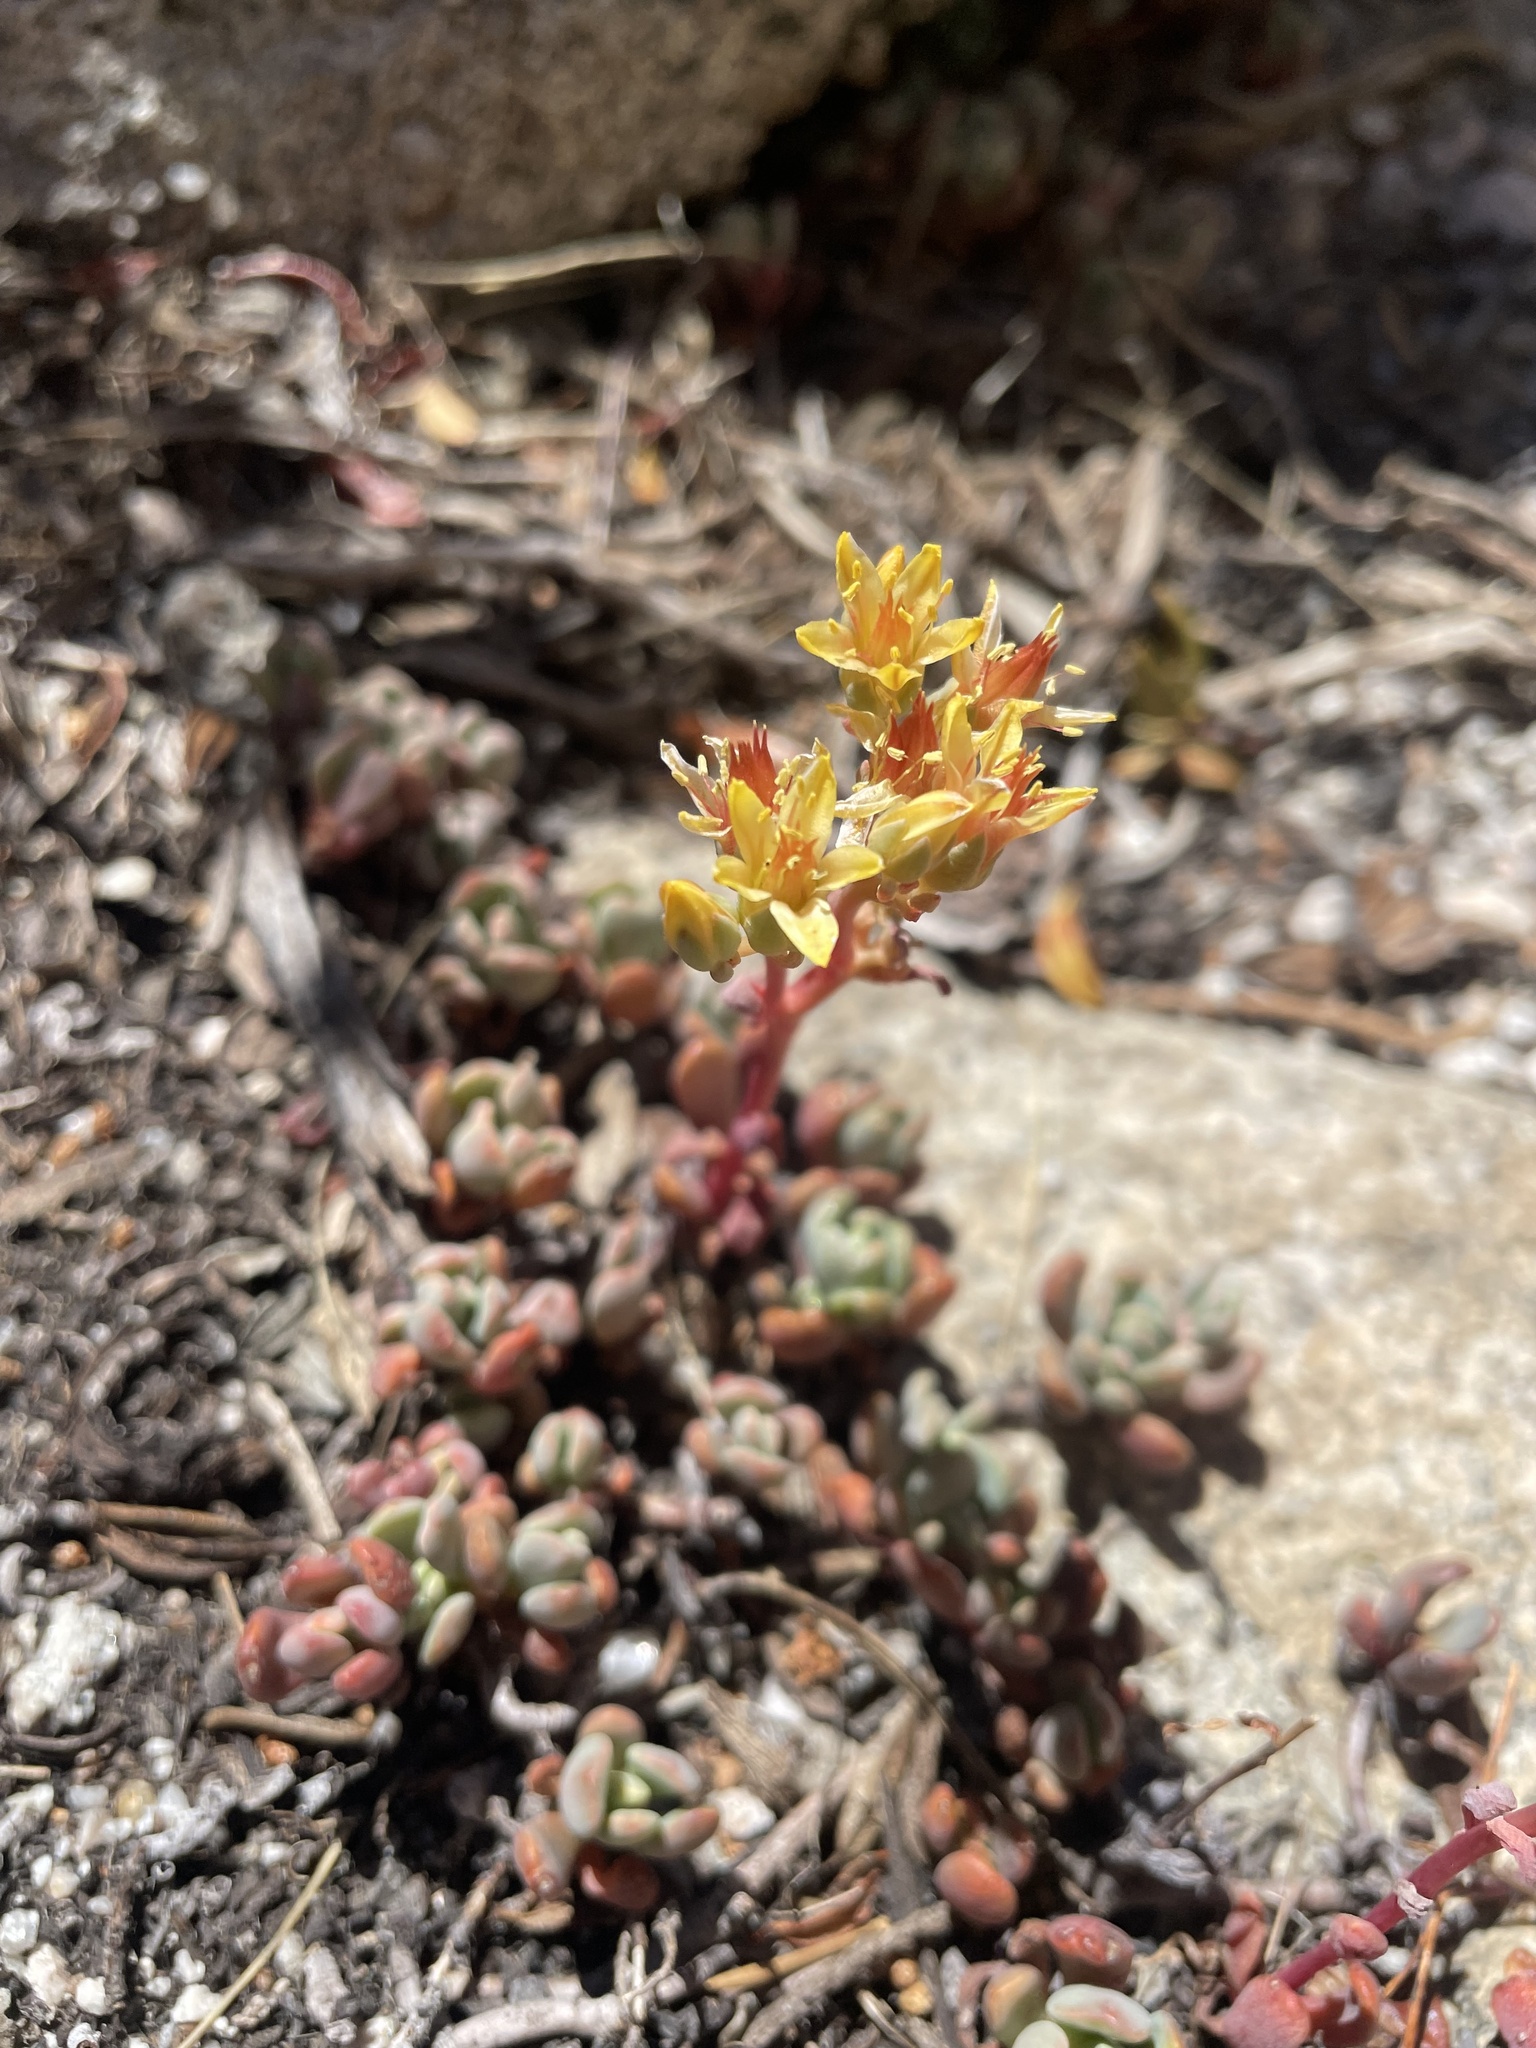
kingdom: Plantae
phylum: Tracheophyta
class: Magnoliopsida
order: Saxifragales
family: Crassulaceae
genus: Sedum
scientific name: Sedum obtusatum
